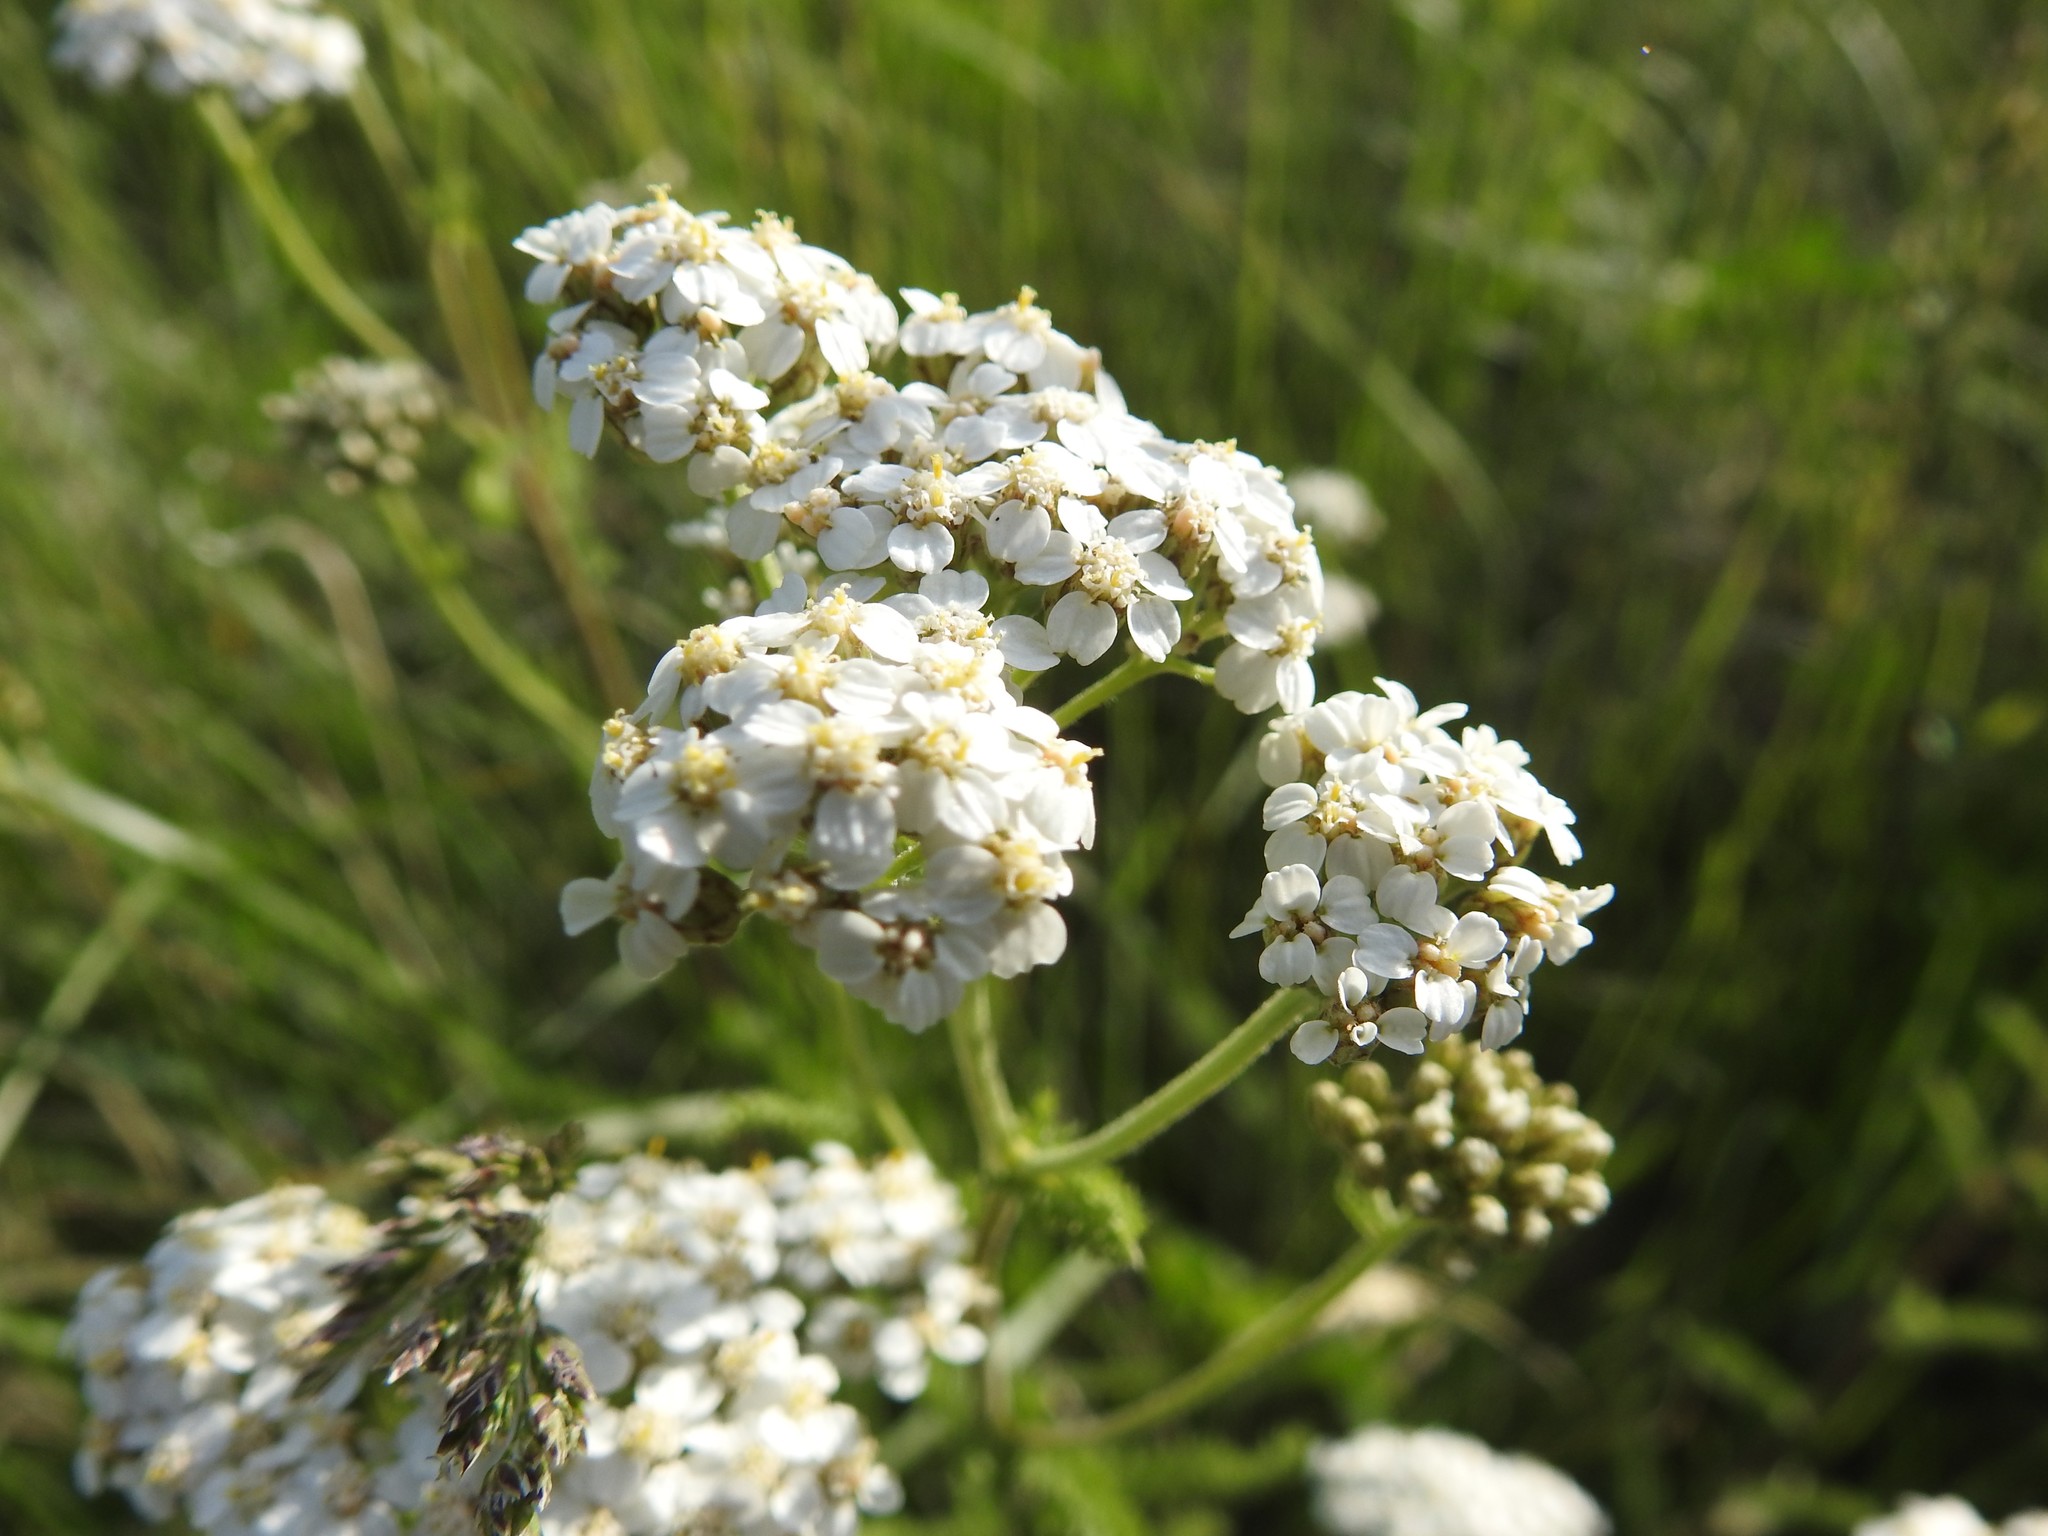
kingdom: Plantae
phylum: Tracheophyta
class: Magnoliopsida
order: Asterales
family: Asteraceae
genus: Achillea
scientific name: Achillea millefolium
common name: Yarrow
